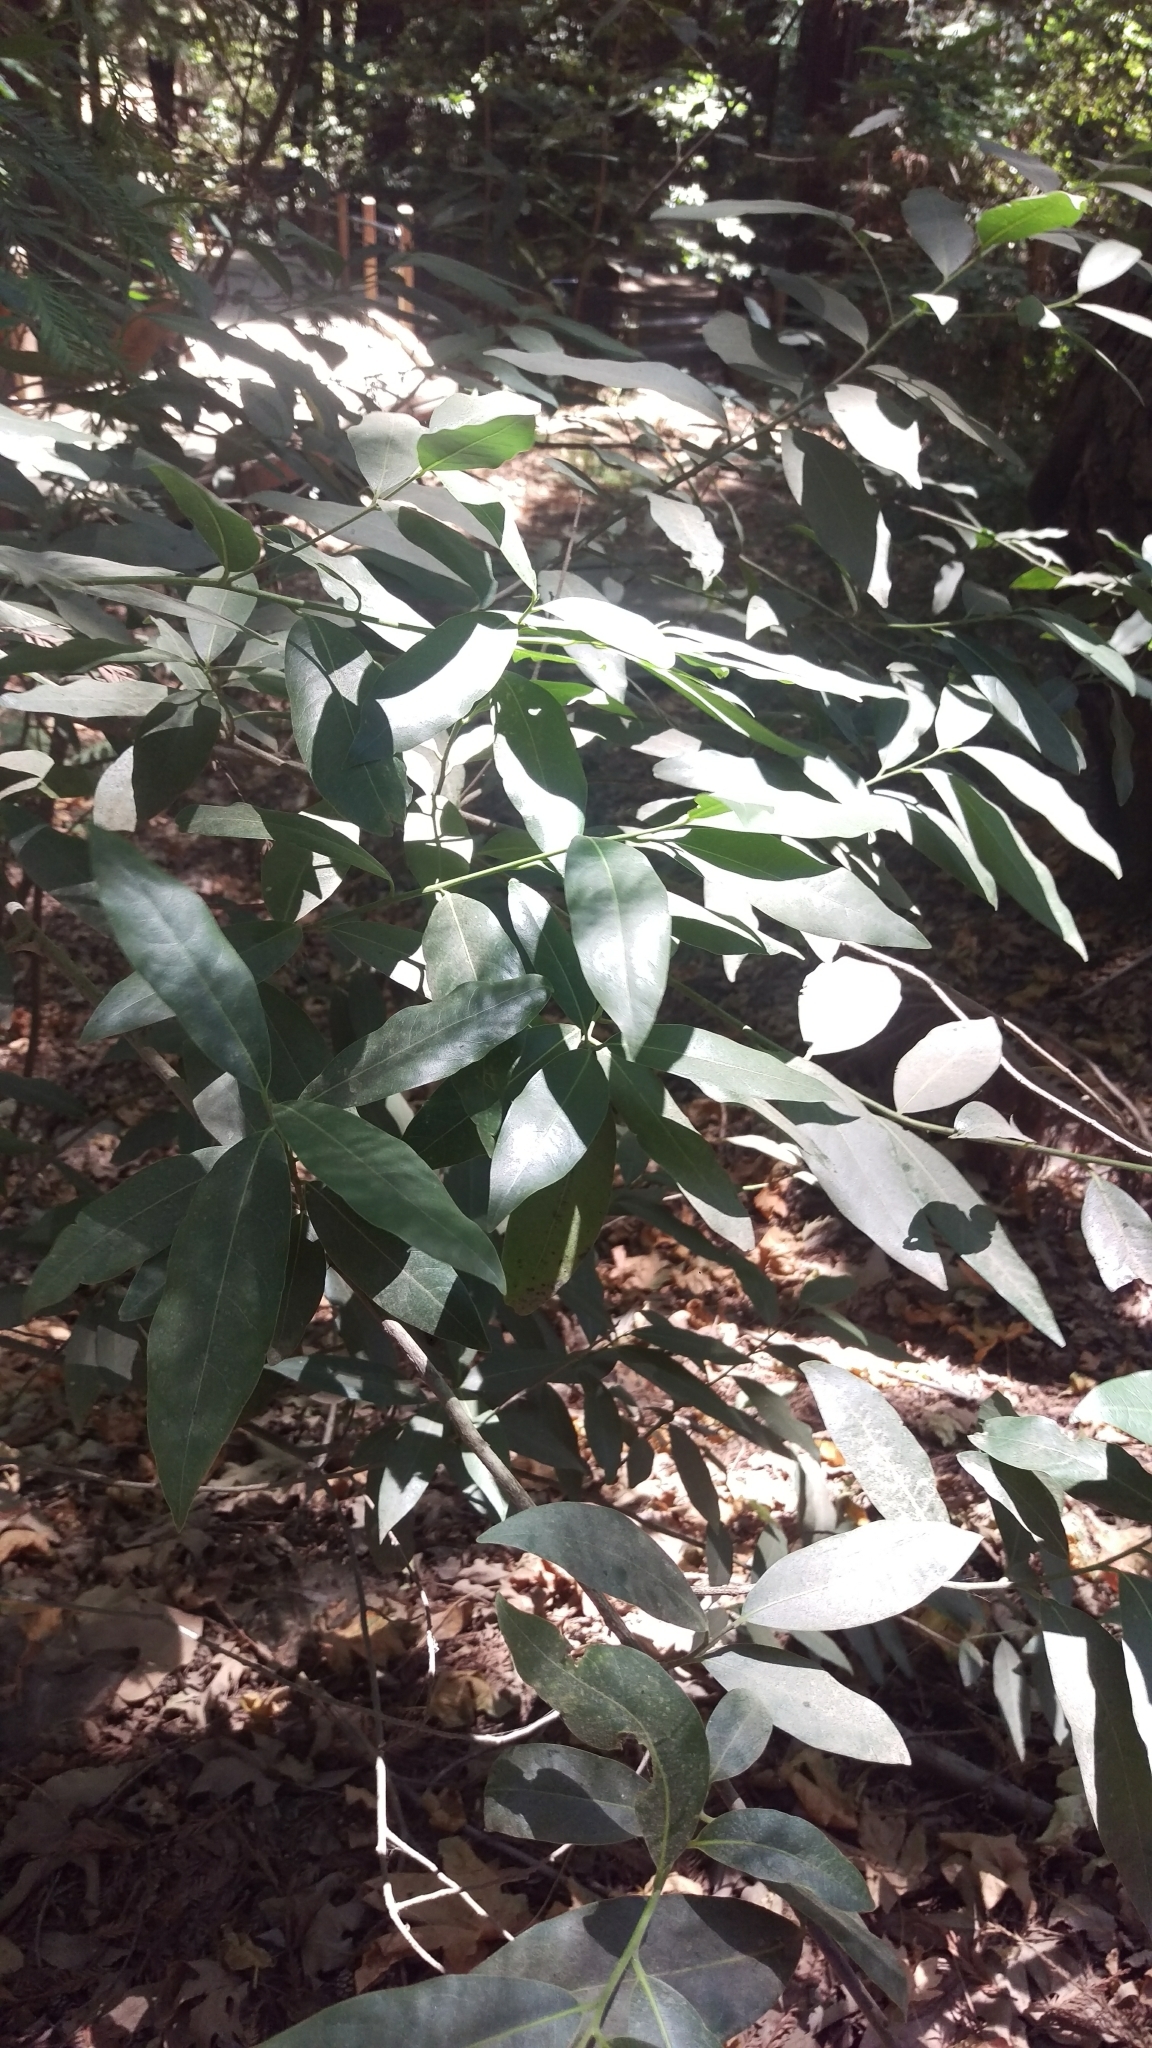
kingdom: Plantae
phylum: Tracheophyta
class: Magnoliopsida
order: Laurales
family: Lauraceae
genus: Umbellularia
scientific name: Umbellularia californica
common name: California bay
